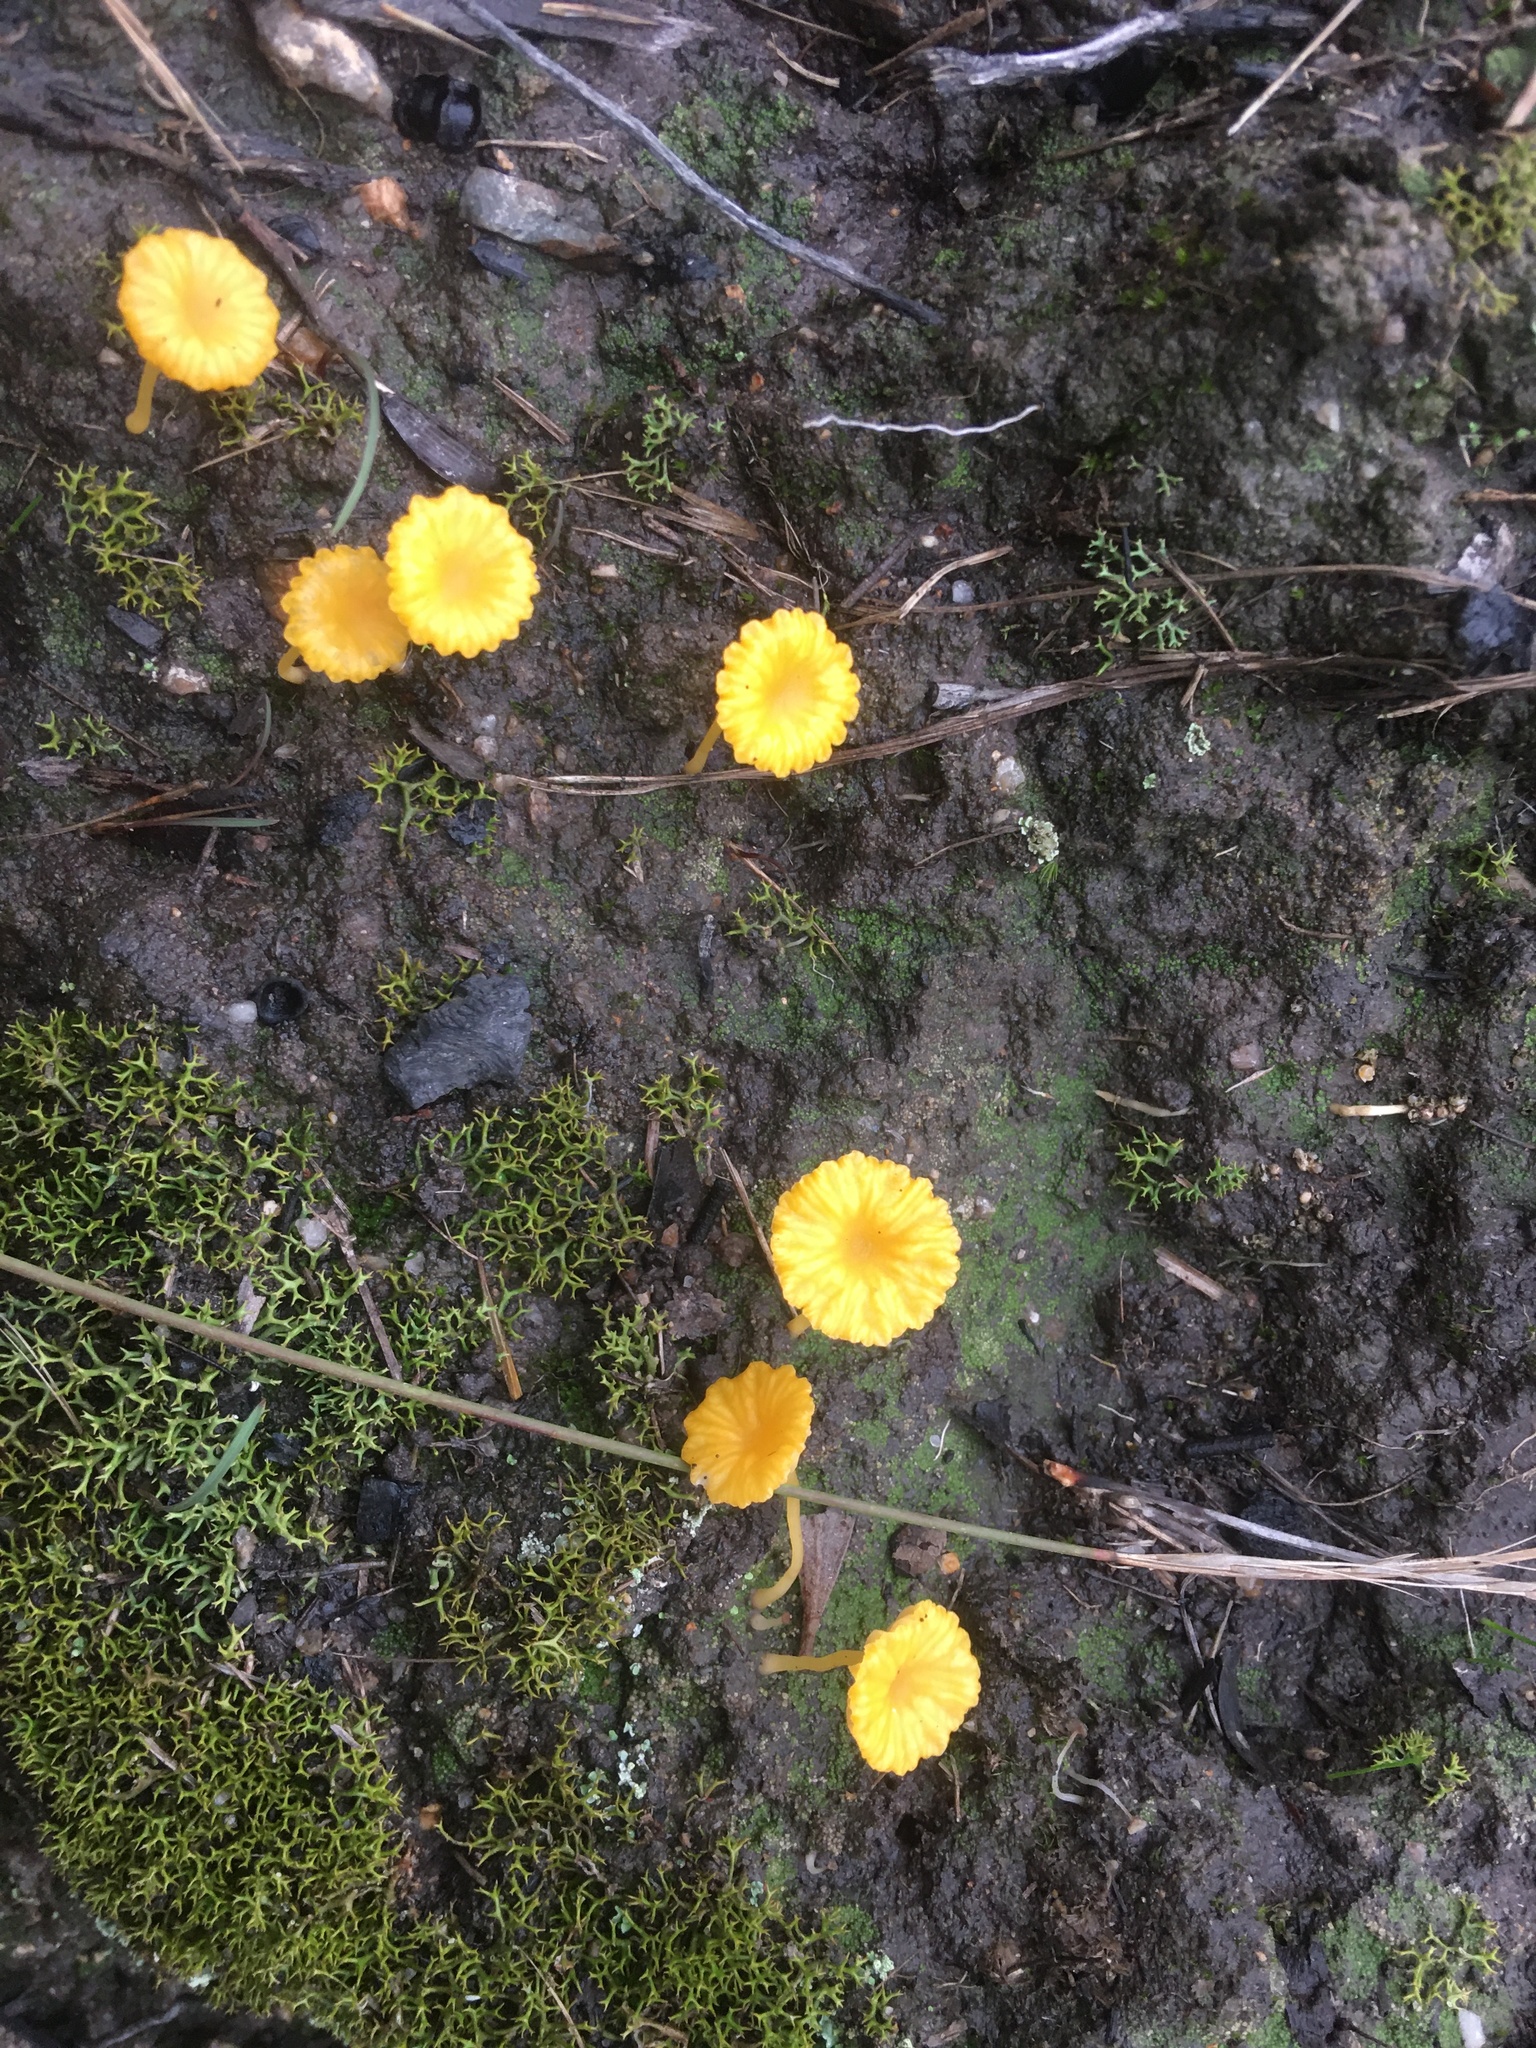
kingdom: Fungi
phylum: Basidiomycota
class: Agaricomycetes
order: Agaricales
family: Hygrophoraceae
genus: Lichenomphalia
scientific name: Lichenomphalia chromacea
